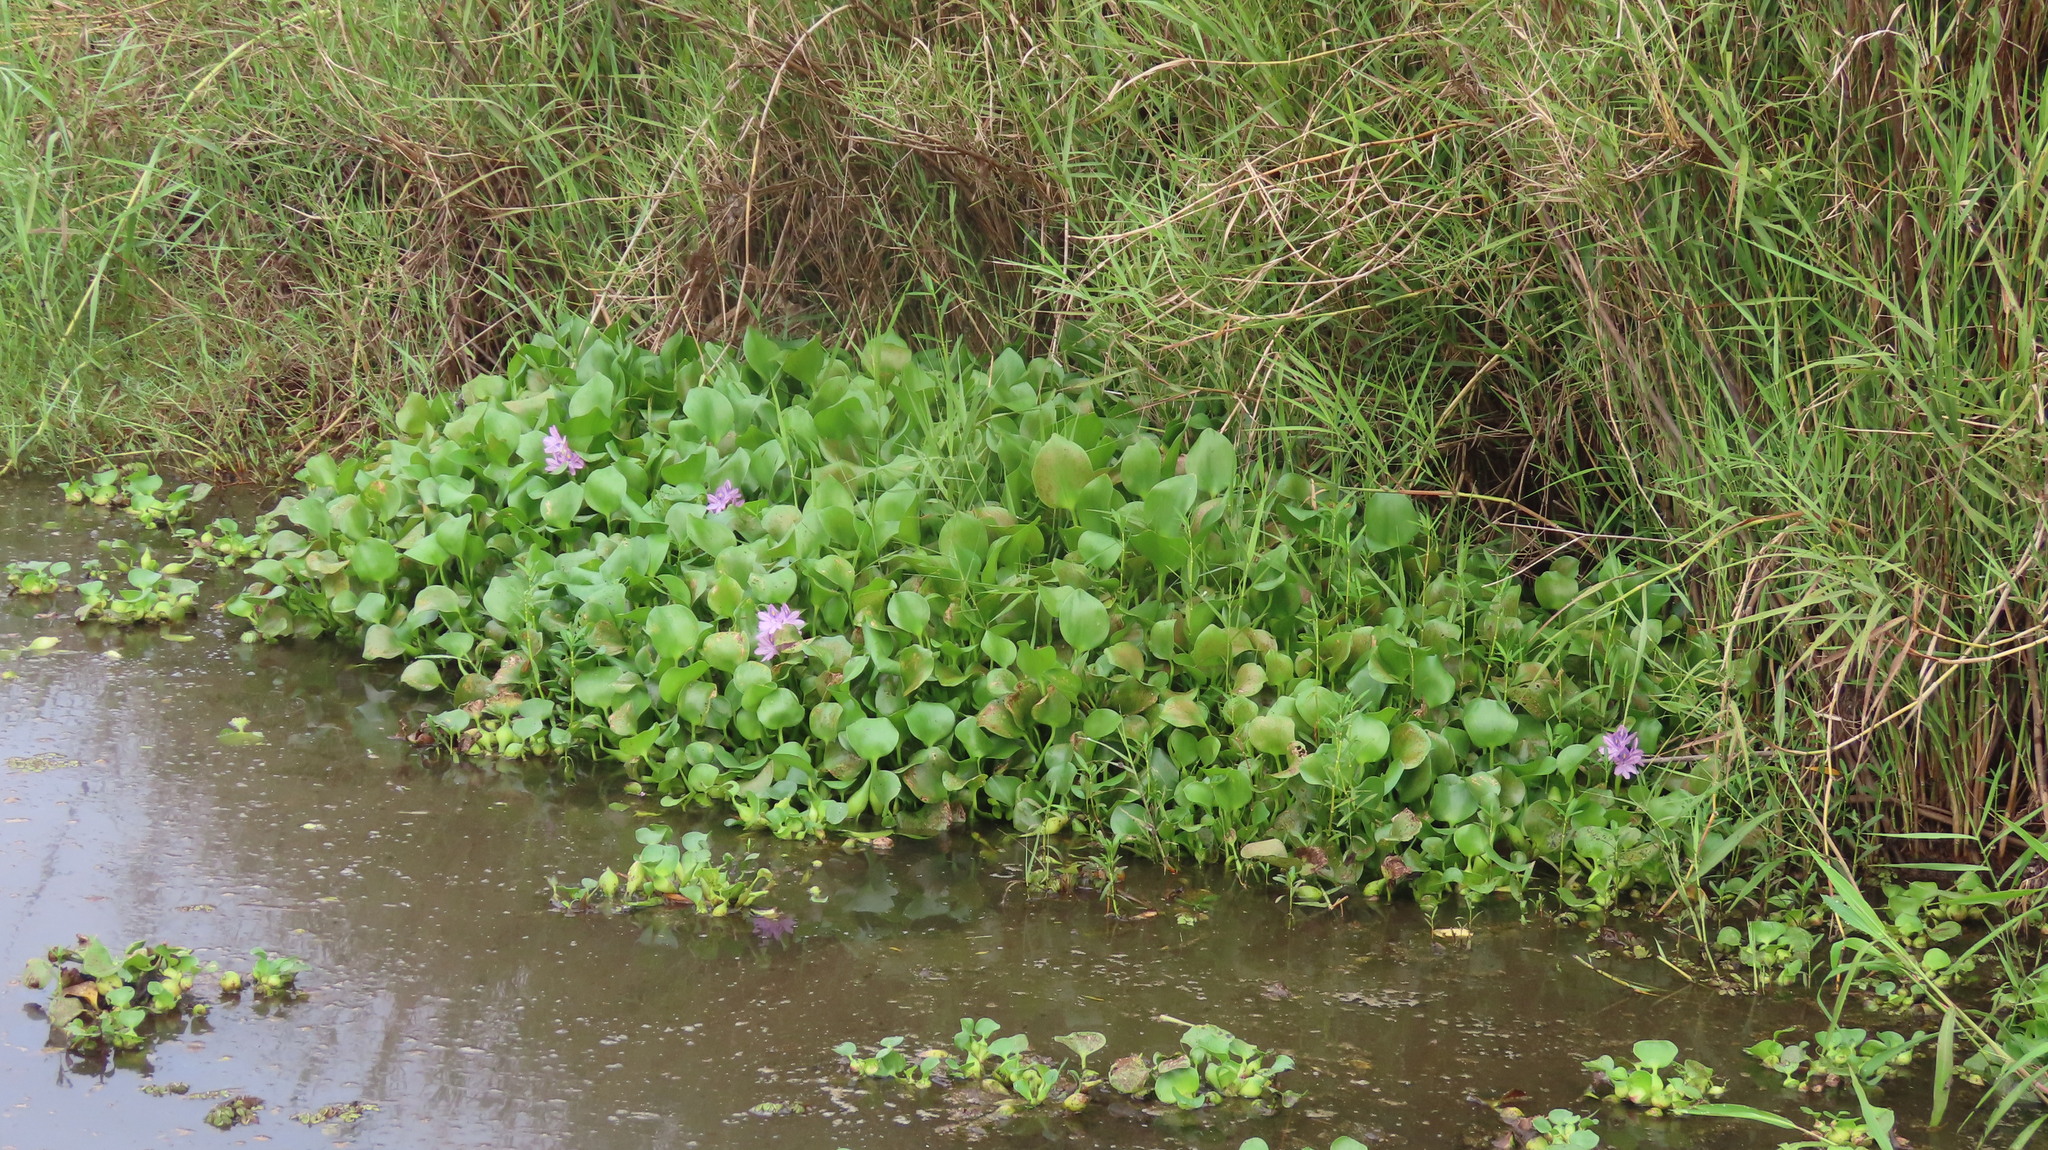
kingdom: Plantae
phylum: Tracheophyta
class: Liliopsida
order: Commelinales
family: Pontederiaceae
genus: Pontederia
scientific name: Pontederia crassipes
